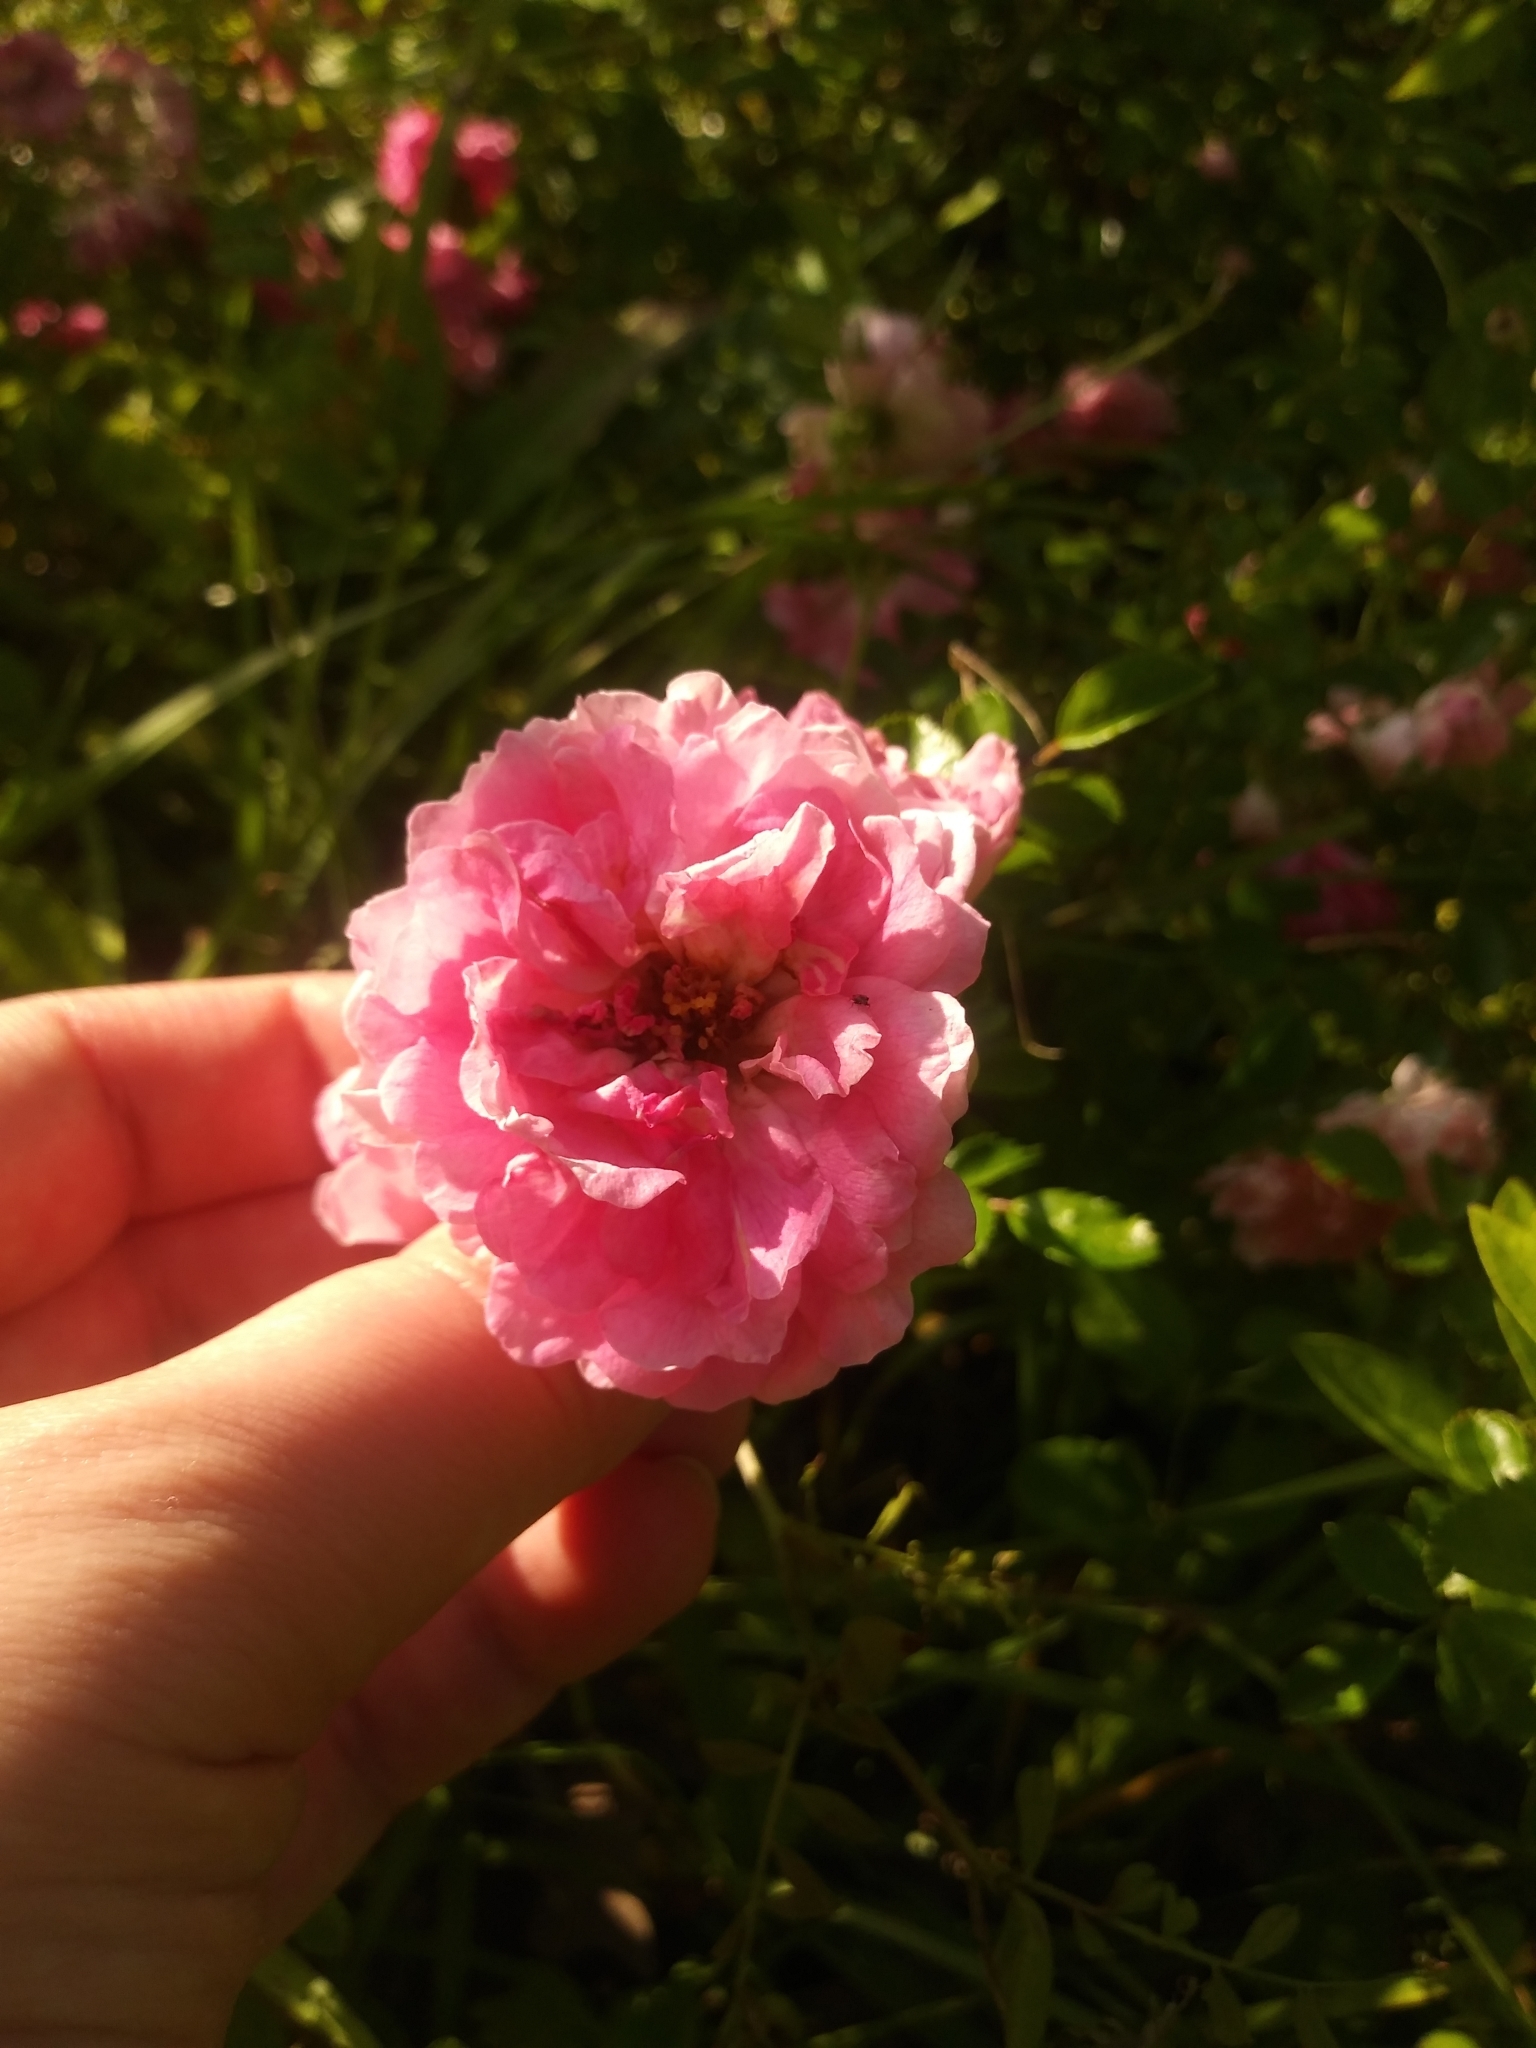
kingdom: Plantae
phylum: Tracheophyta
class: Magnoliopsida
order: Rosales
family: Rosaceae
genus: Rosa
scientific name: Rosa
